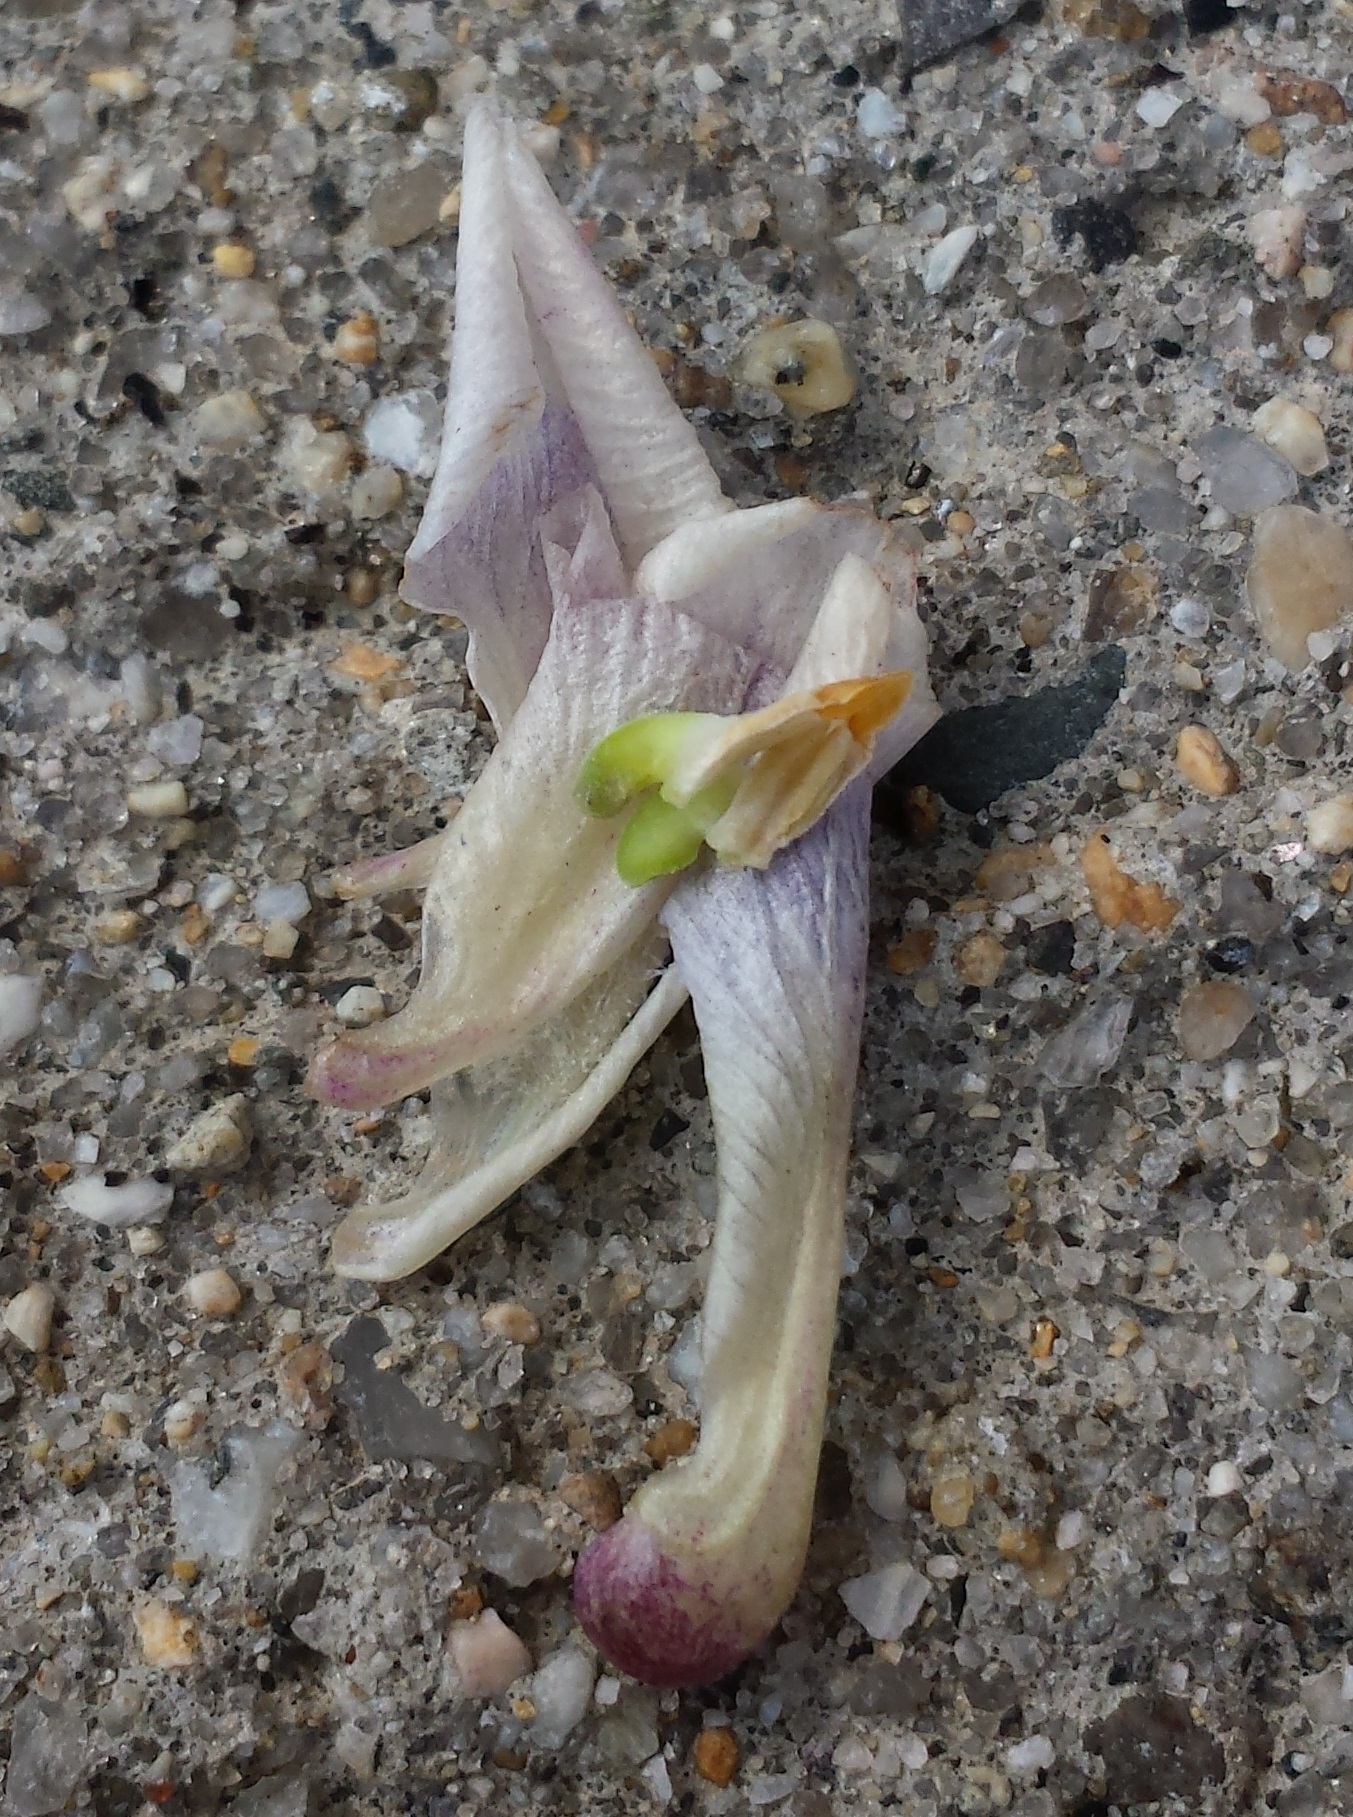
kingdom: Plantae
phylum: Tracheophyta
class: Magnoliopsida
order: Malpighiales
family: Violaceae
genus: Viola
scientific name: Viola sororia
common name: Dooryard violet
